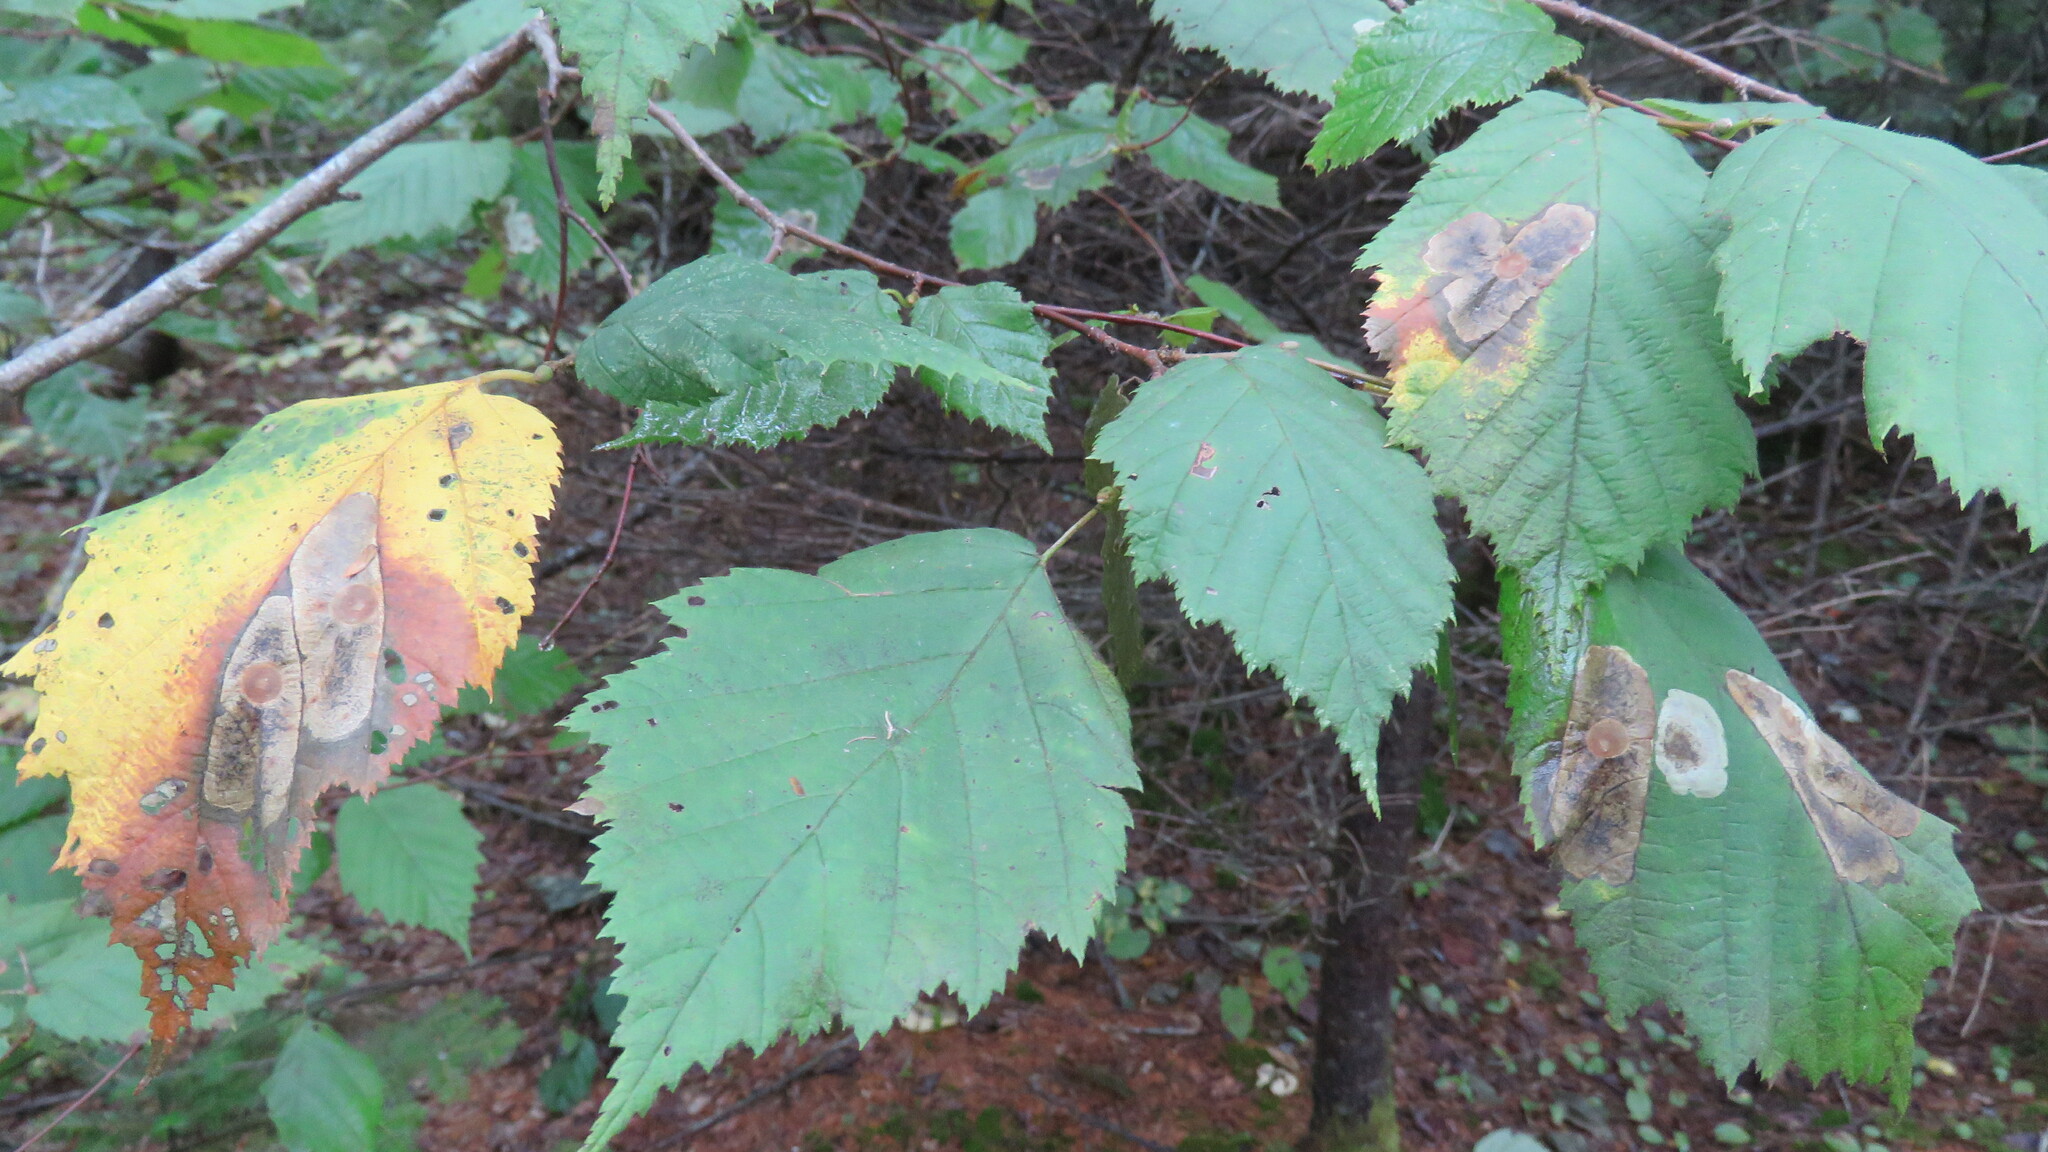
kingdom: Animalia
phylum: Arthropoda
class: Insecta
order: Lepidoptera
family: Gracillariidae
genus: Cameraria
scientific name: Cameraria corylisella
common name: Hazel blotchminer
